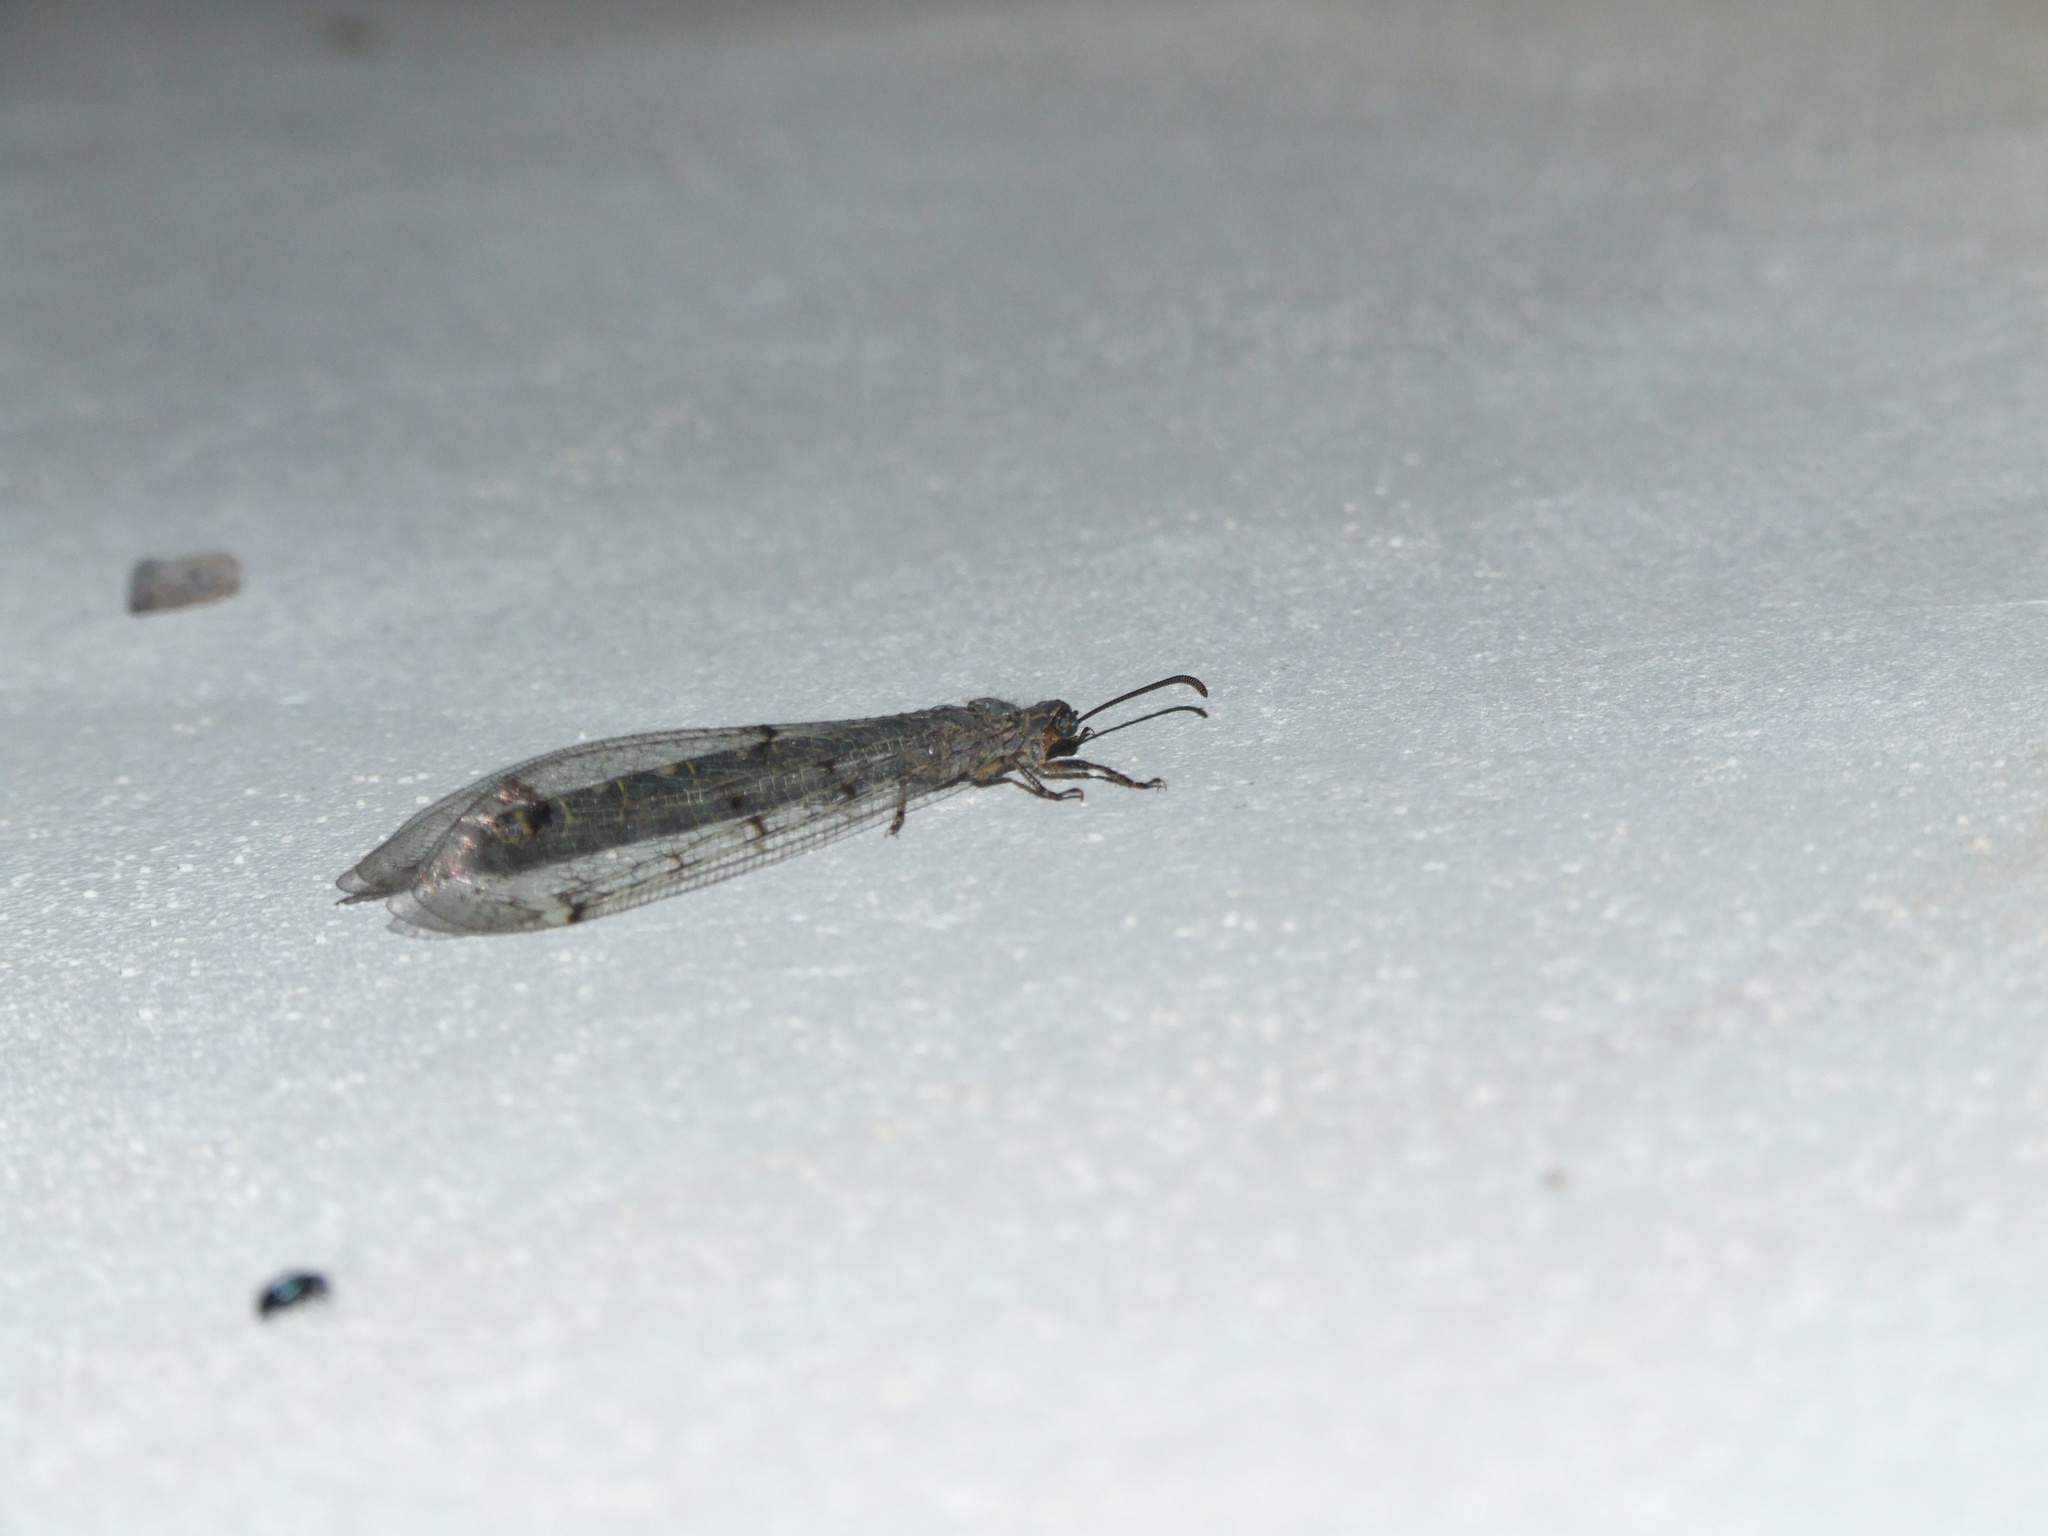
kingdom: Animalia
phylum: Arthropoda
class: Insecta
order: Neuroptera
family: Myrmeleontidae
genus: Distoleon
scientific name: Distoleon tetragrammicus
